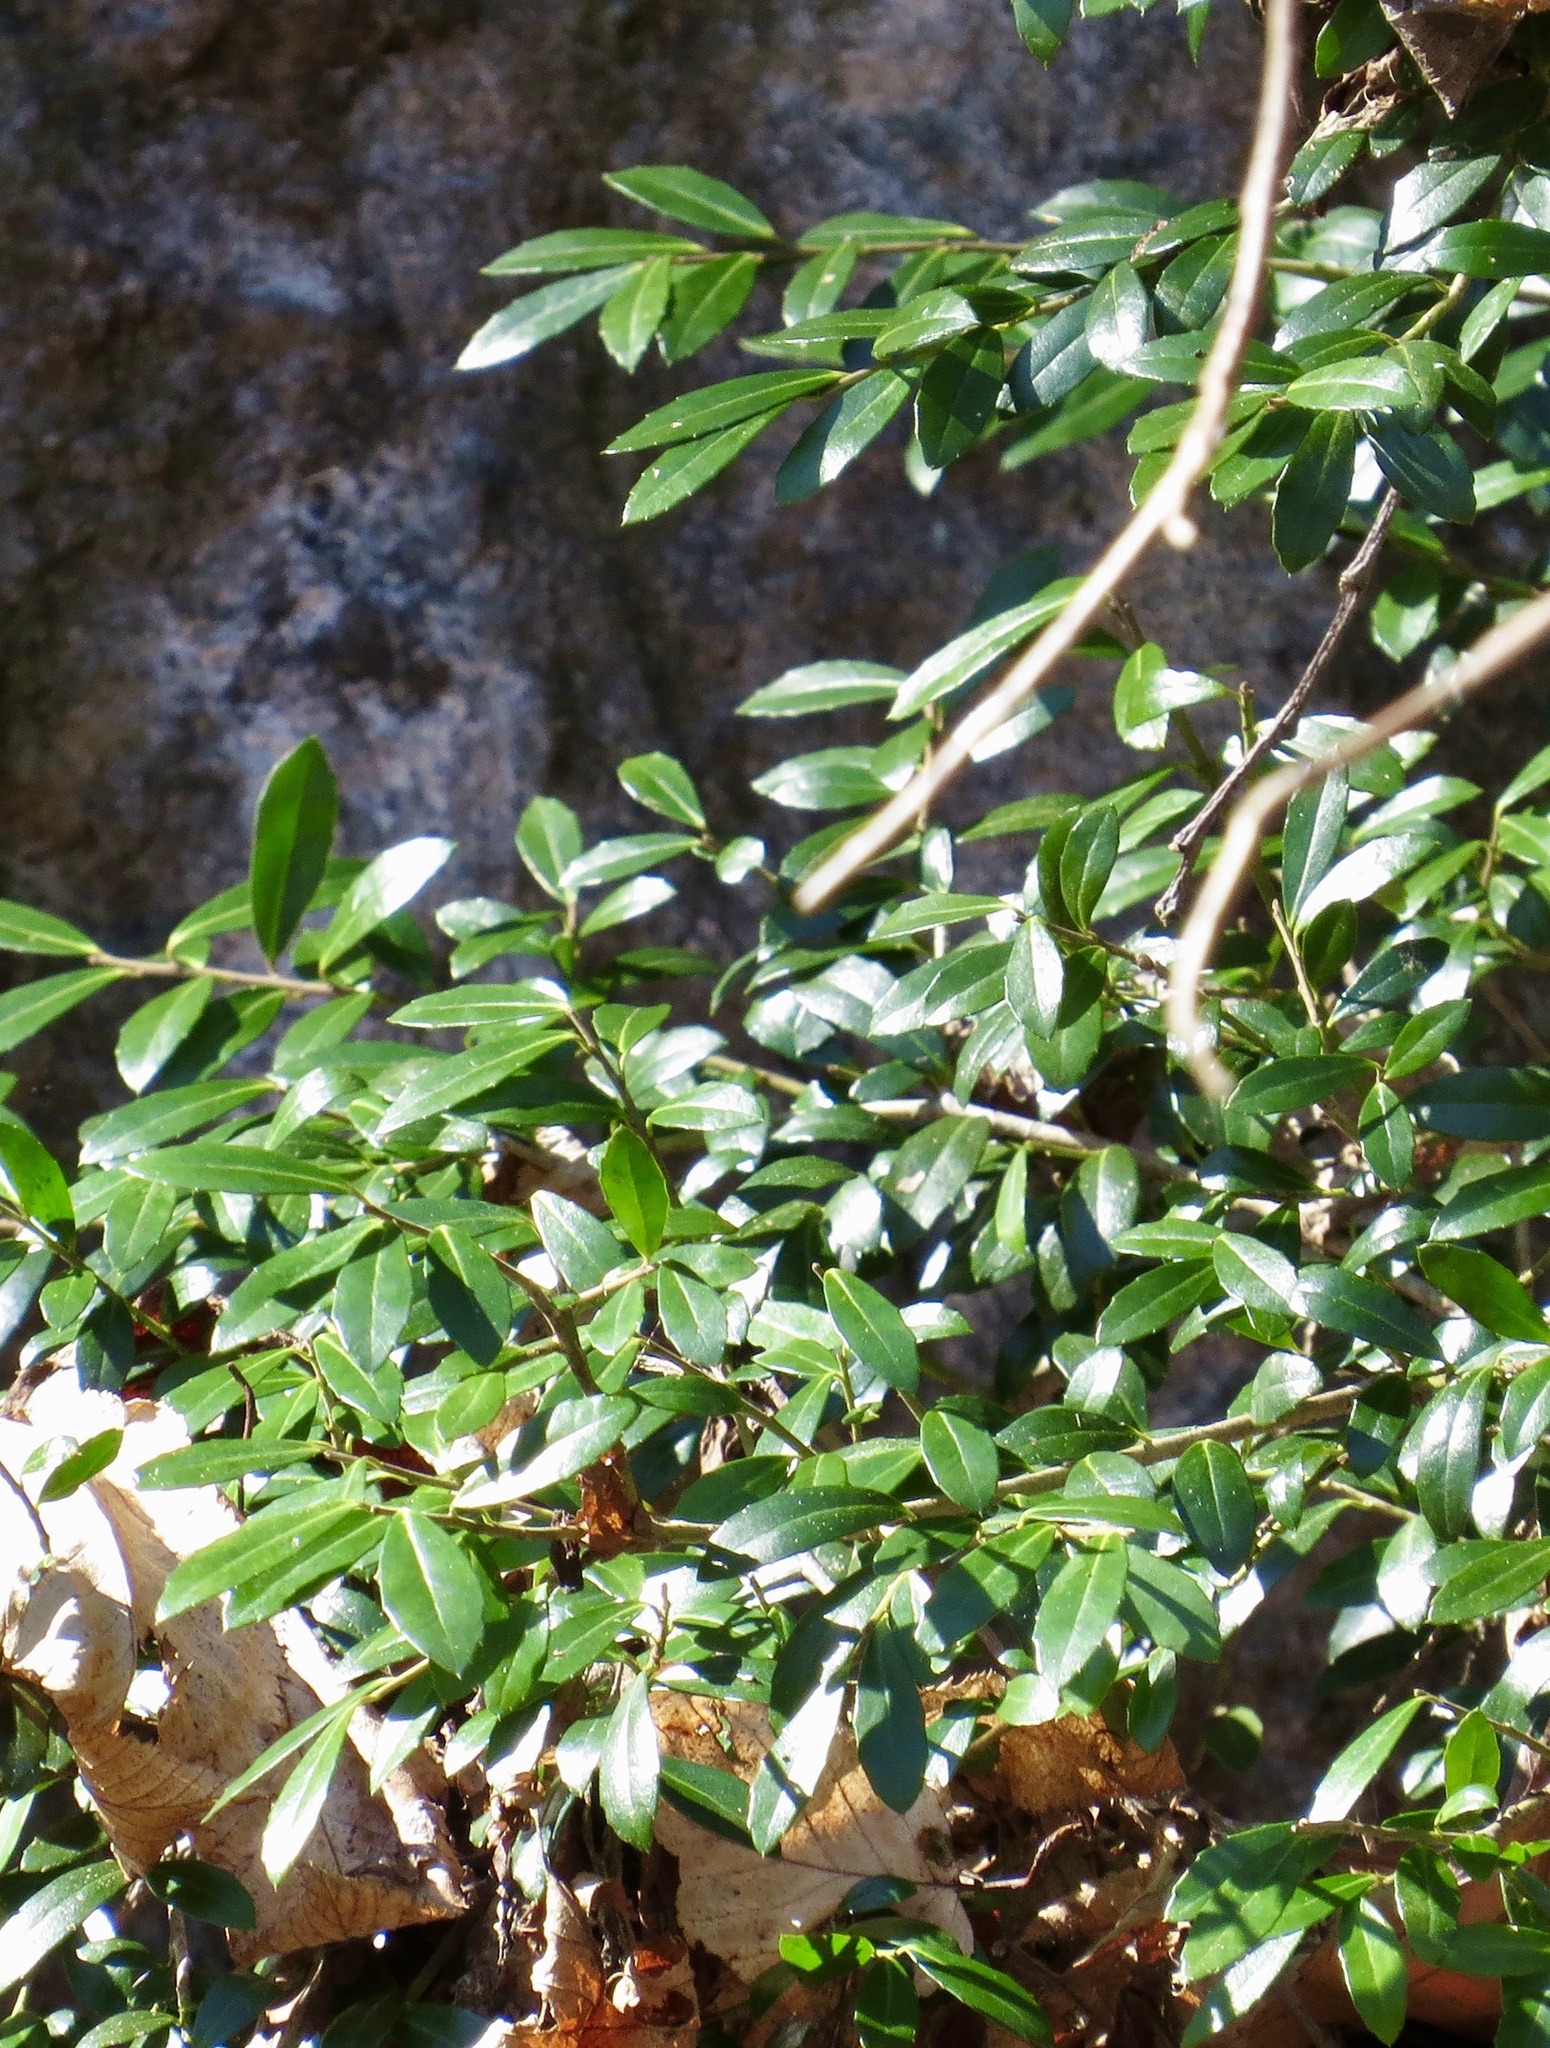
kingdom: Plantae
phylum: Tracheophyta
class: Magnoliopsida
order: Aquifoliales
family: Aquifoliaceae
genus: Ilex
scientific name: Ilex crenata
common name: Japanese holly
